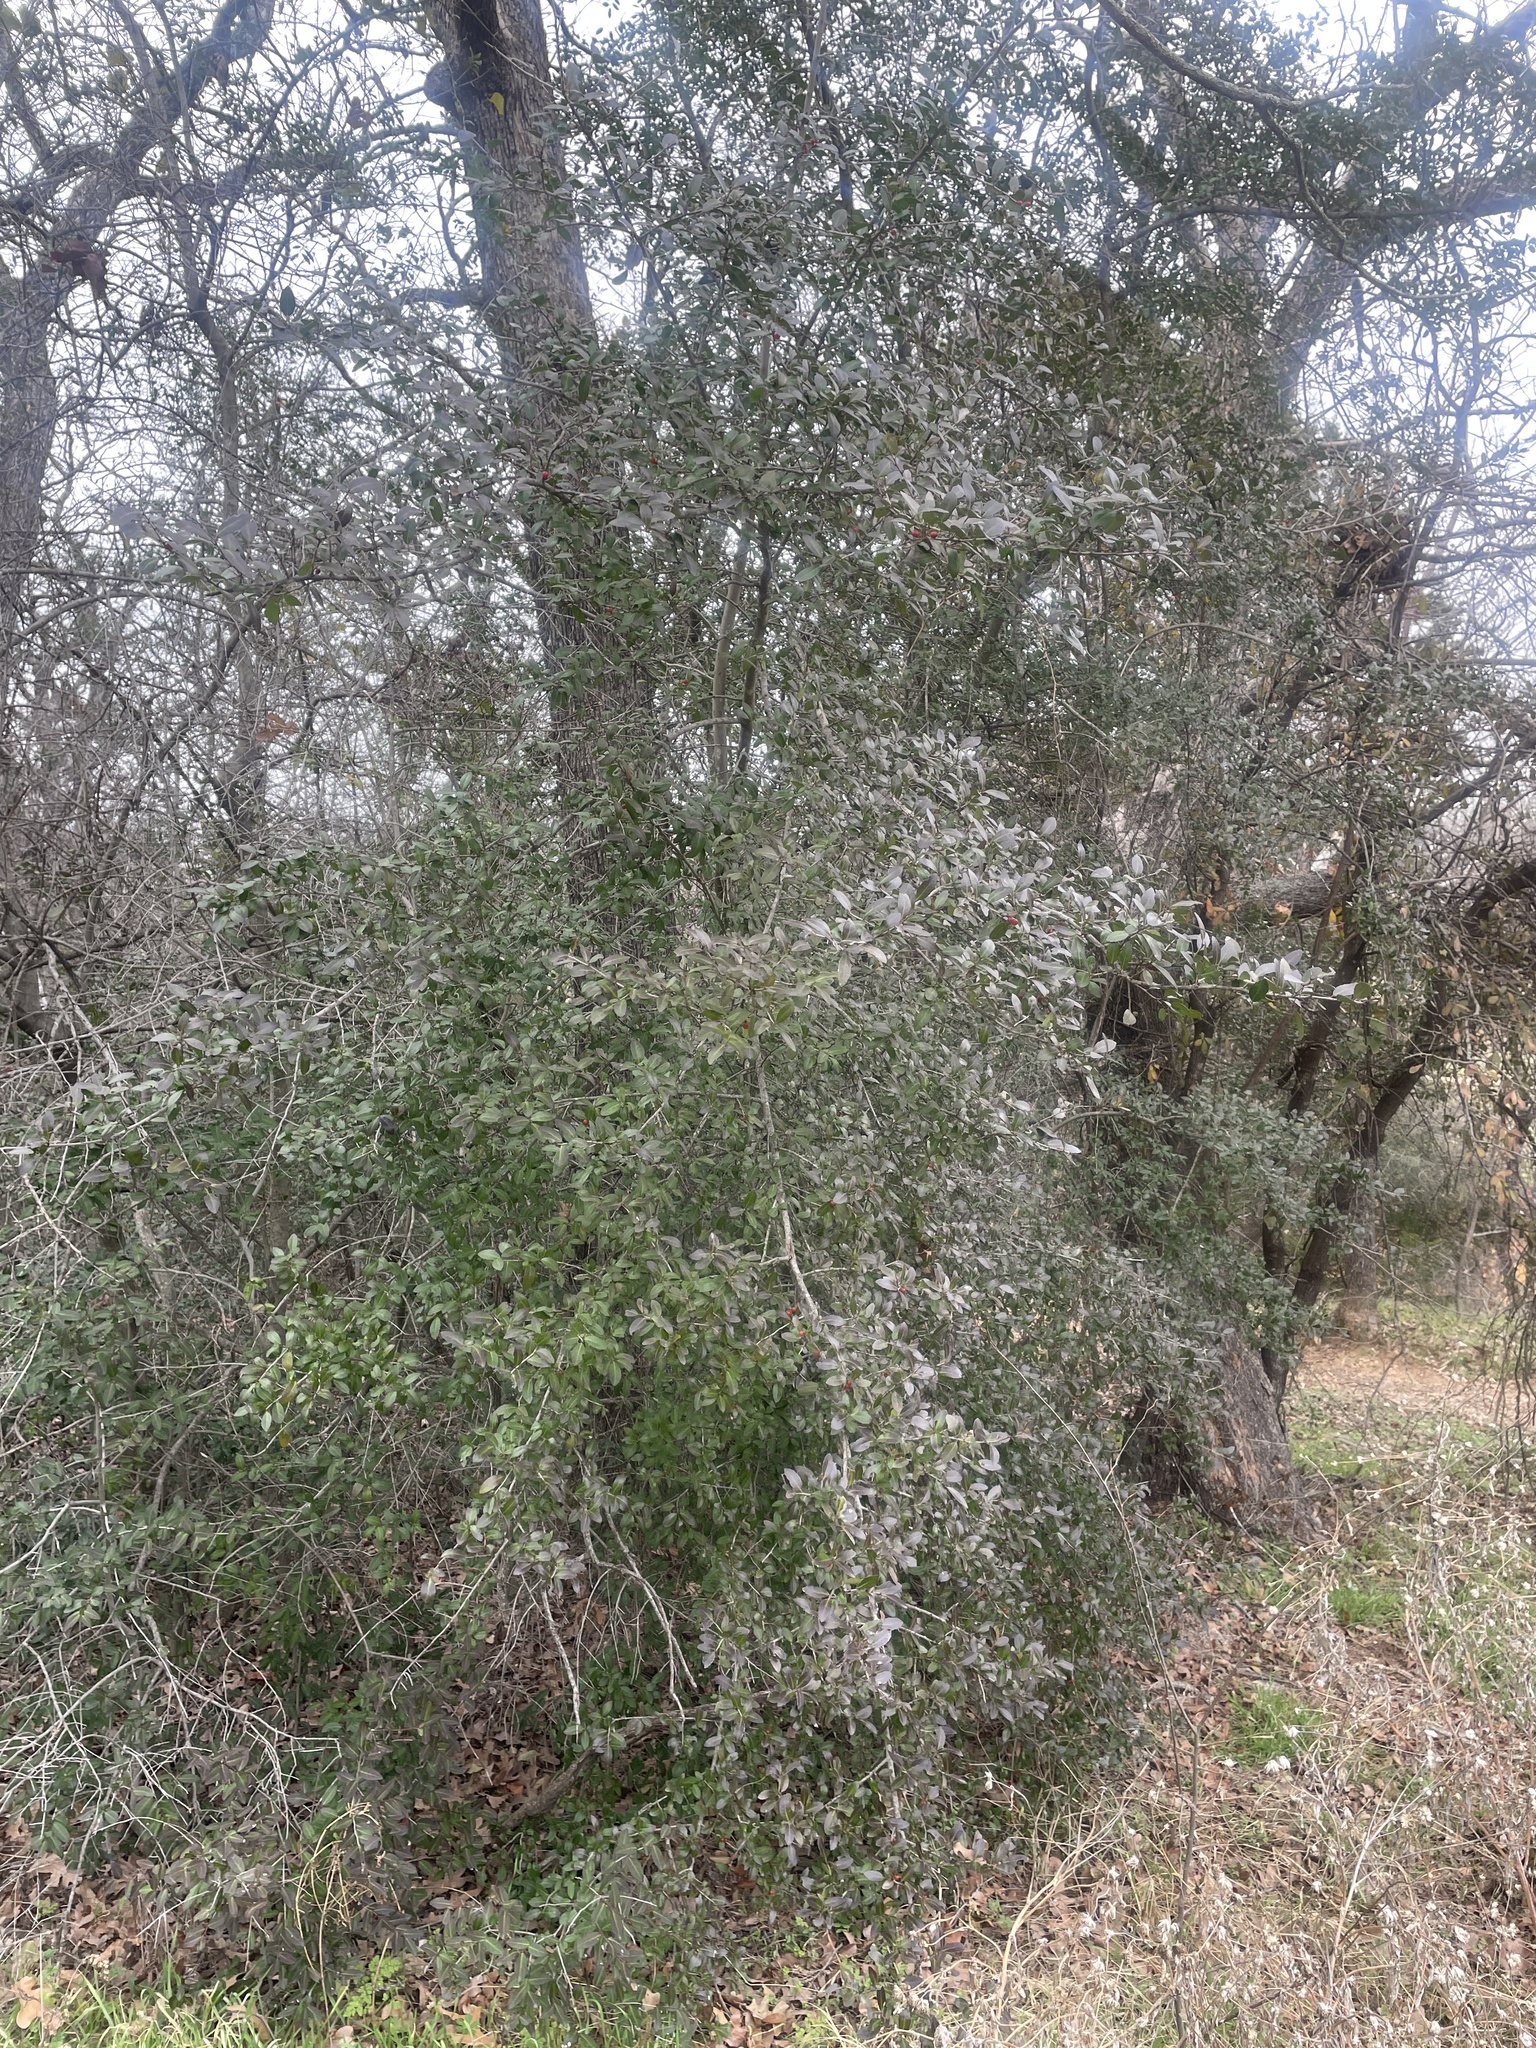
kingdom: Plantae
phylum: Tracheophyta
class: Magnoliopsida
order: Aquifoliales
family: Aquifoliaceae
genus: Ilex
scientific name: Ilex vomitoria
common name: Yaupon holly
